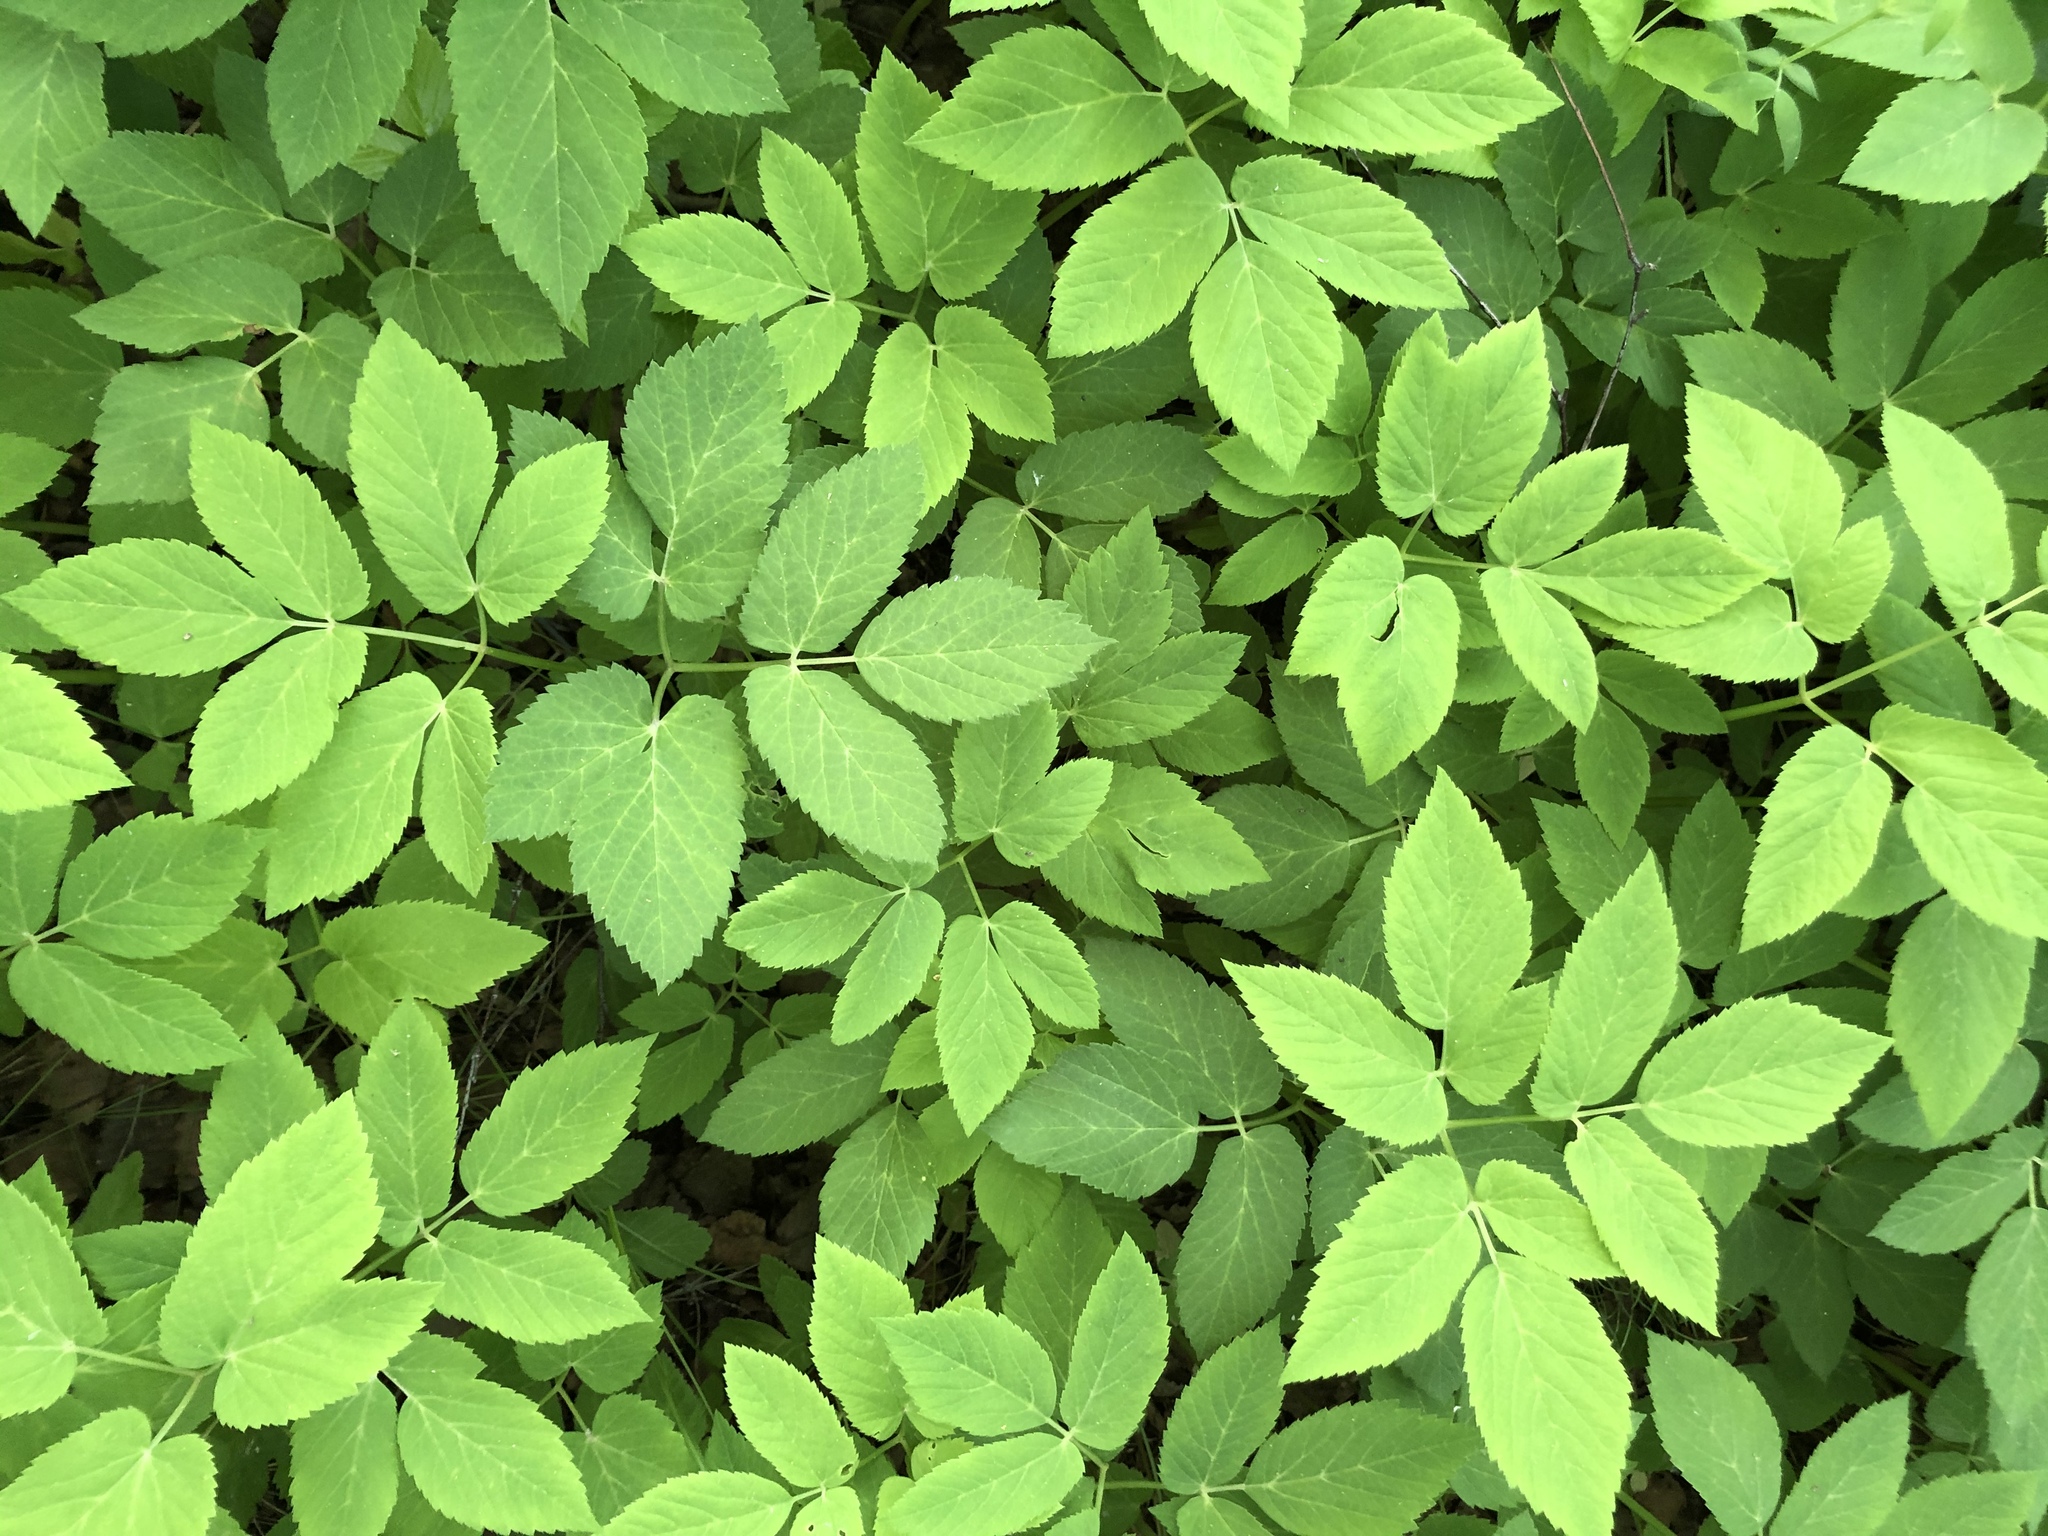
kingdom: Plantae
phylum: Tracheophyta
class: Magnoliopsida
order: Apiales
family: Apiaceae
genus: Aegopodium
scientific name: Aegopodium podagraria
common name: Ground-elder
